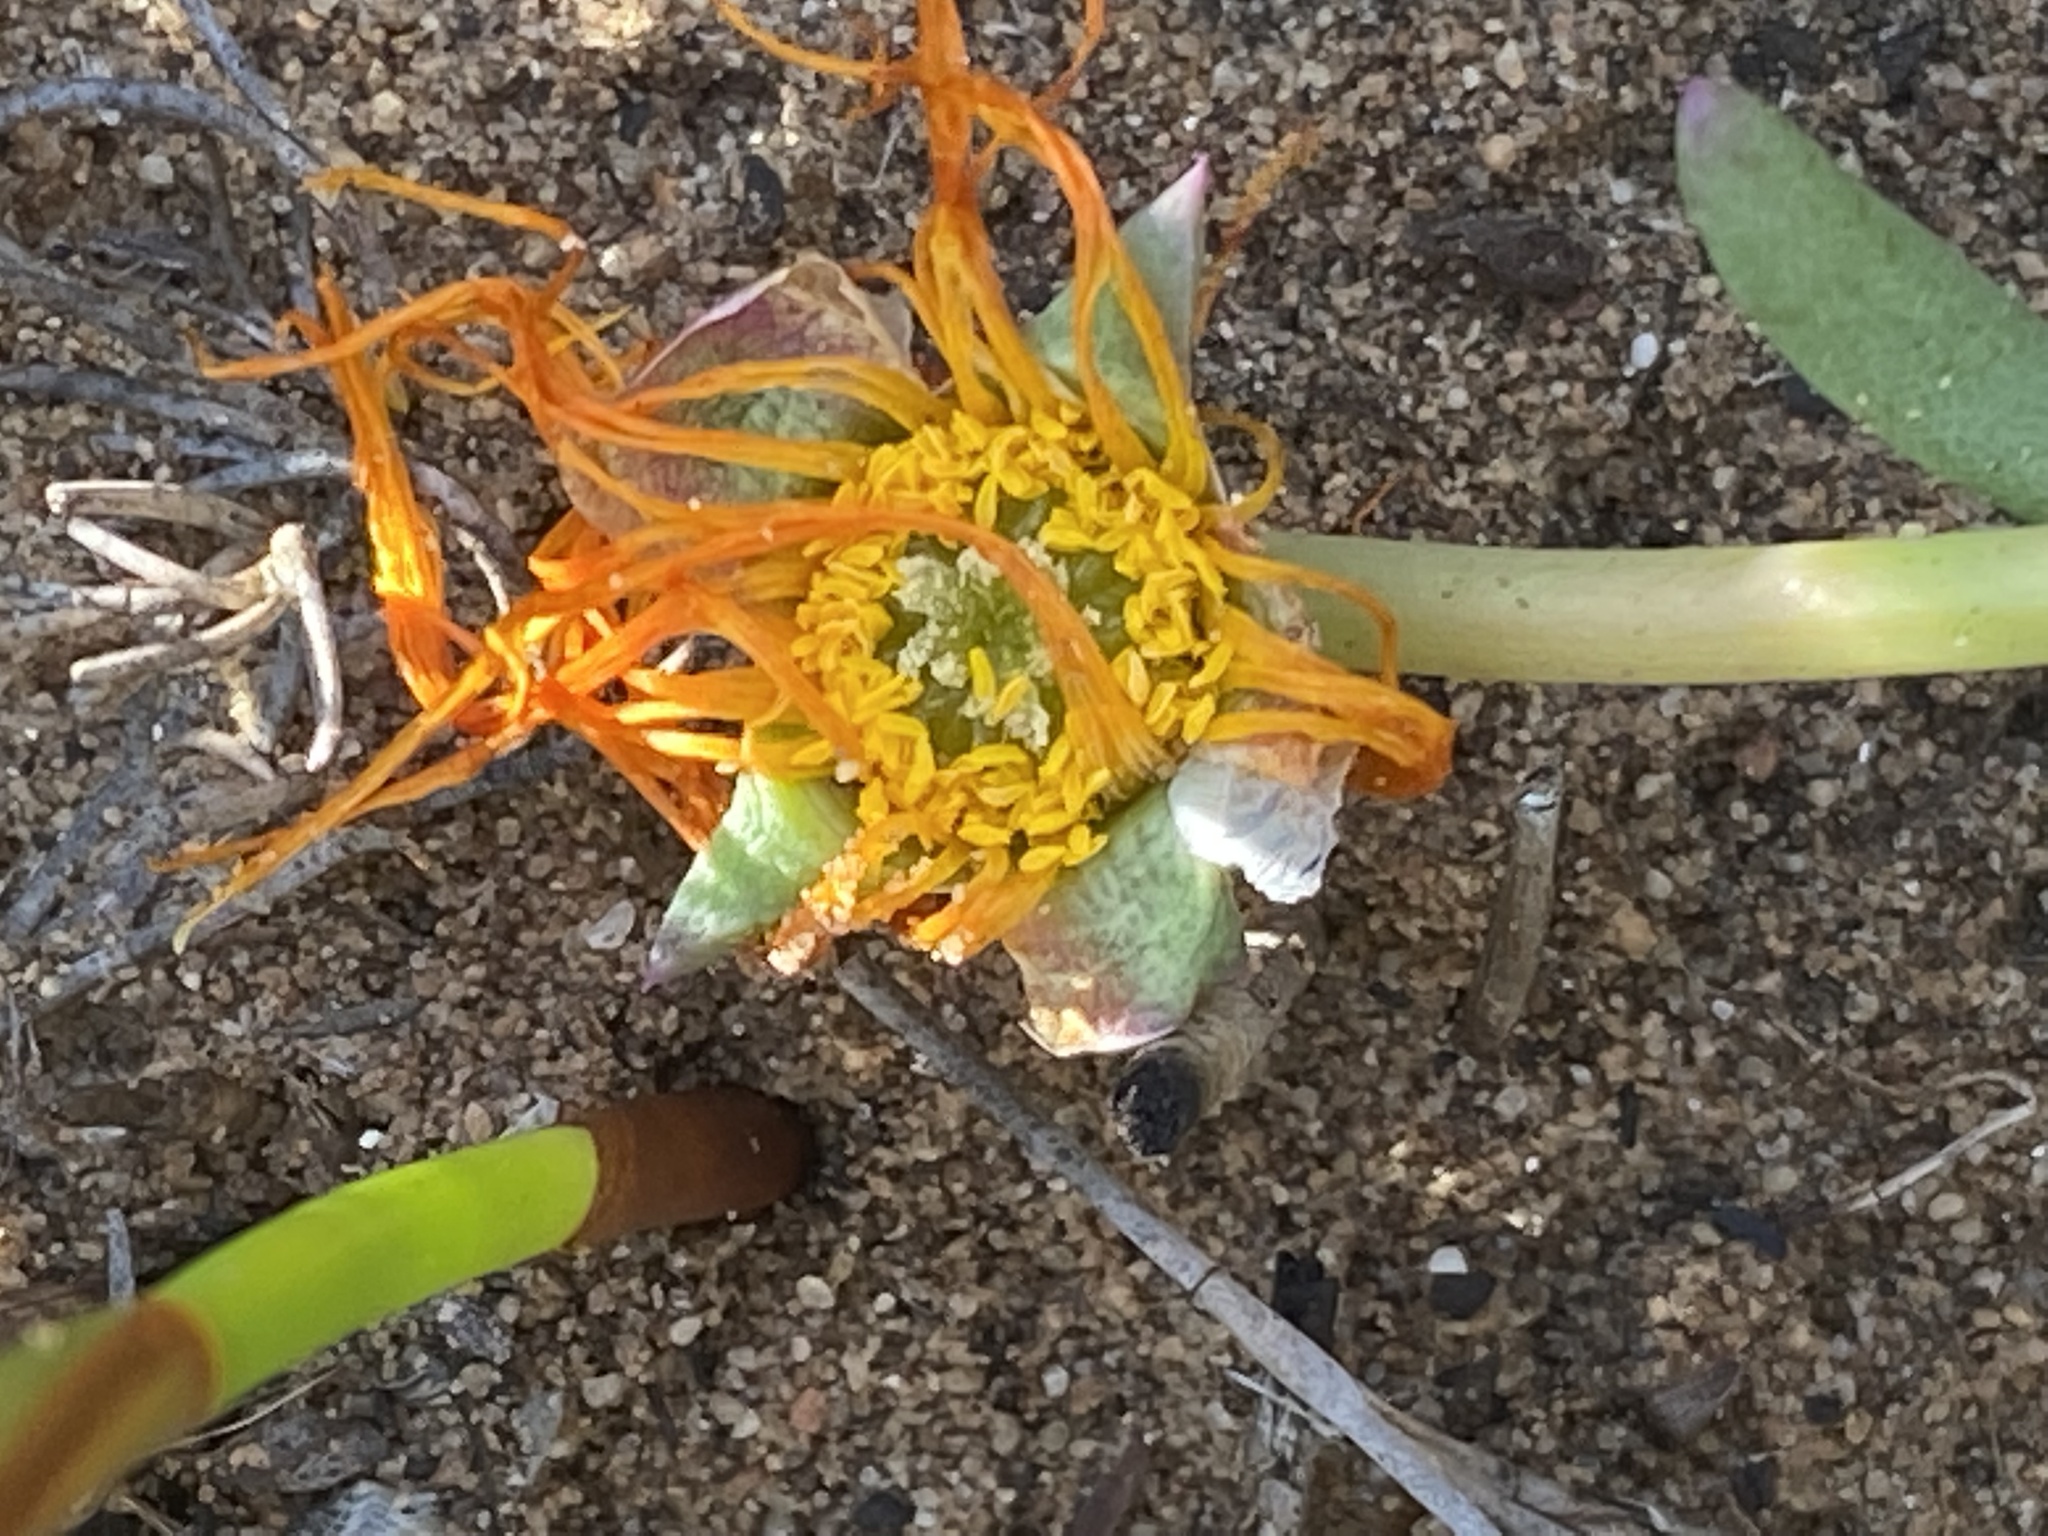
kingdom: Plantae
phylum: Tracheophyta
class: Magnoliopsida
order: Caryophyllales
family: Aizoaceae
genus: Jordaaniella
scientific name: Jordaaniella dubia
